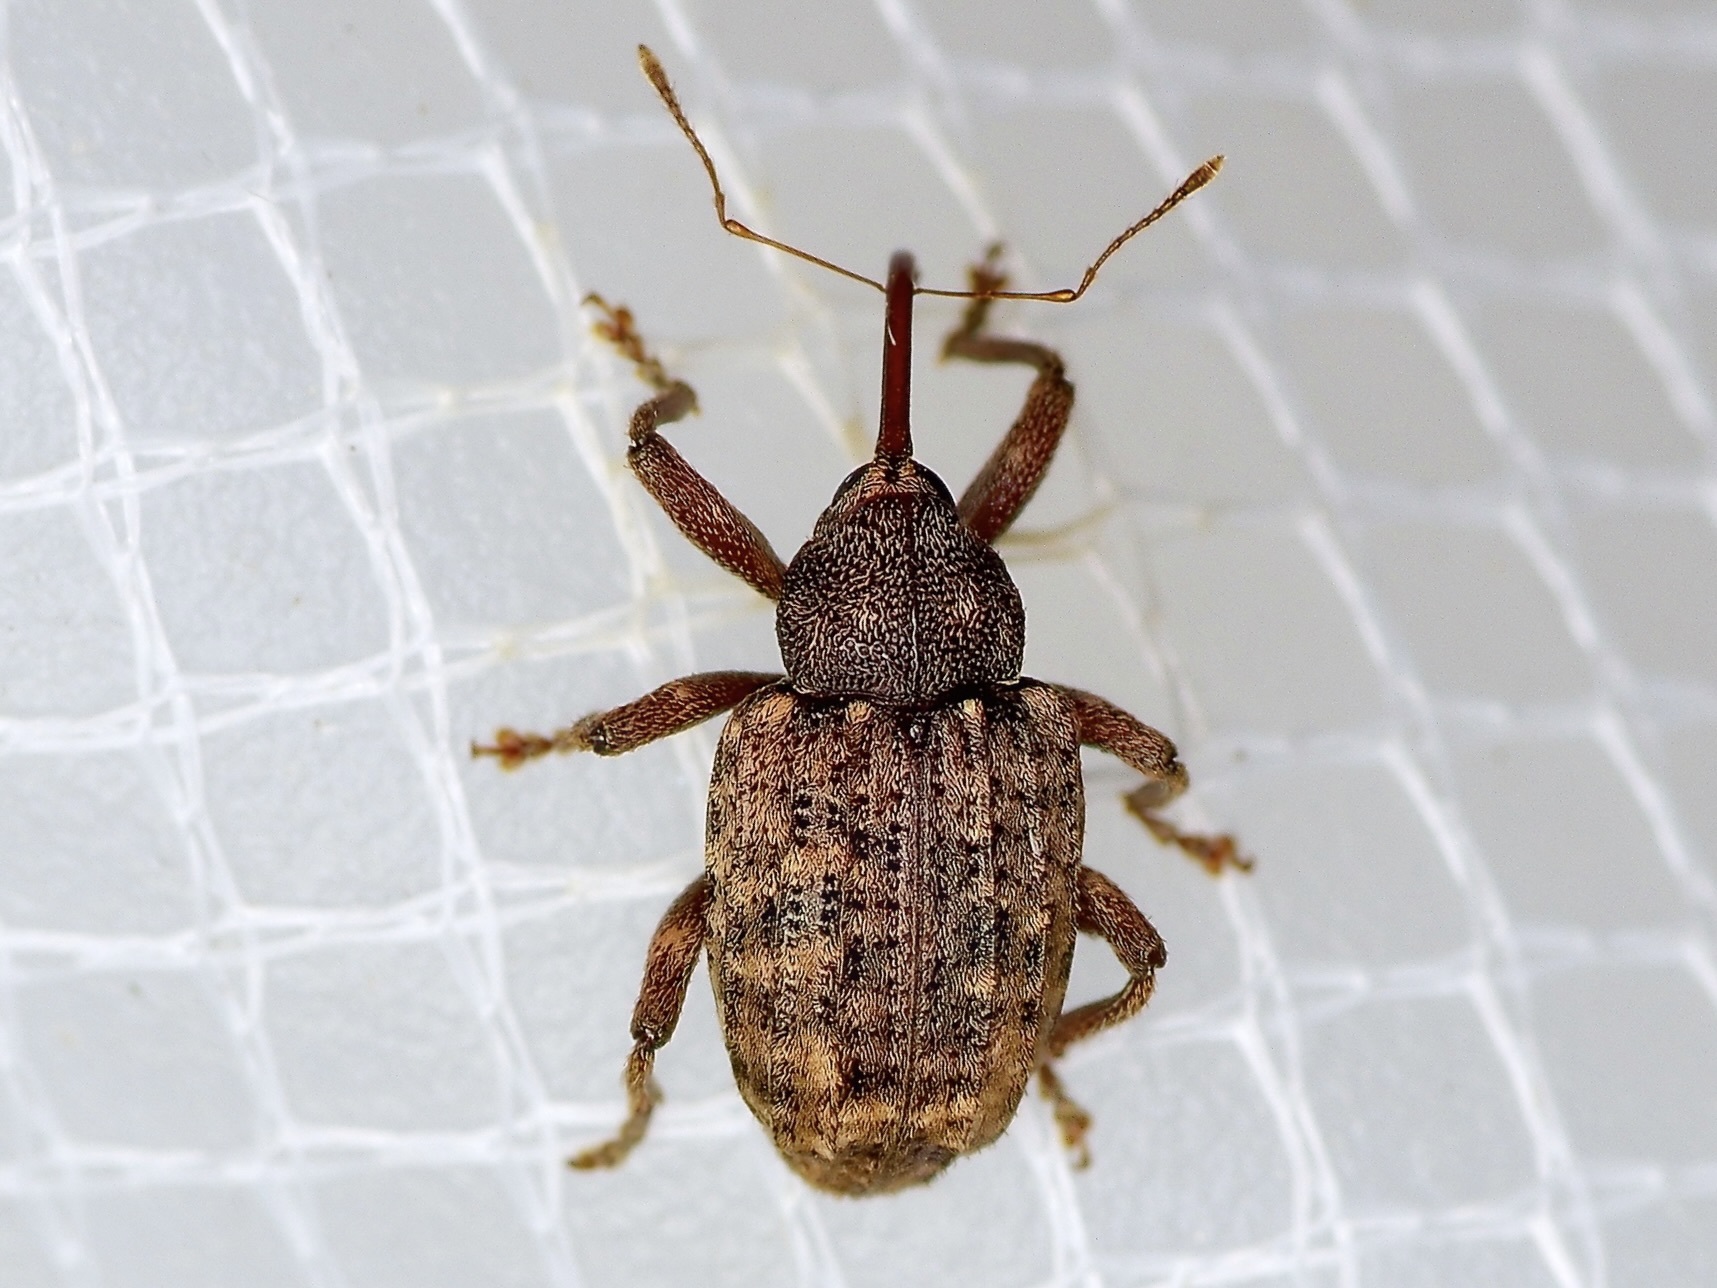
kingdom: Animalia
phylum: Arthropoda
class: Insecta
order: Coleoptera
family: Curculionidae
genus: Conotrachelus
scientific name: Conotrachelus naso
